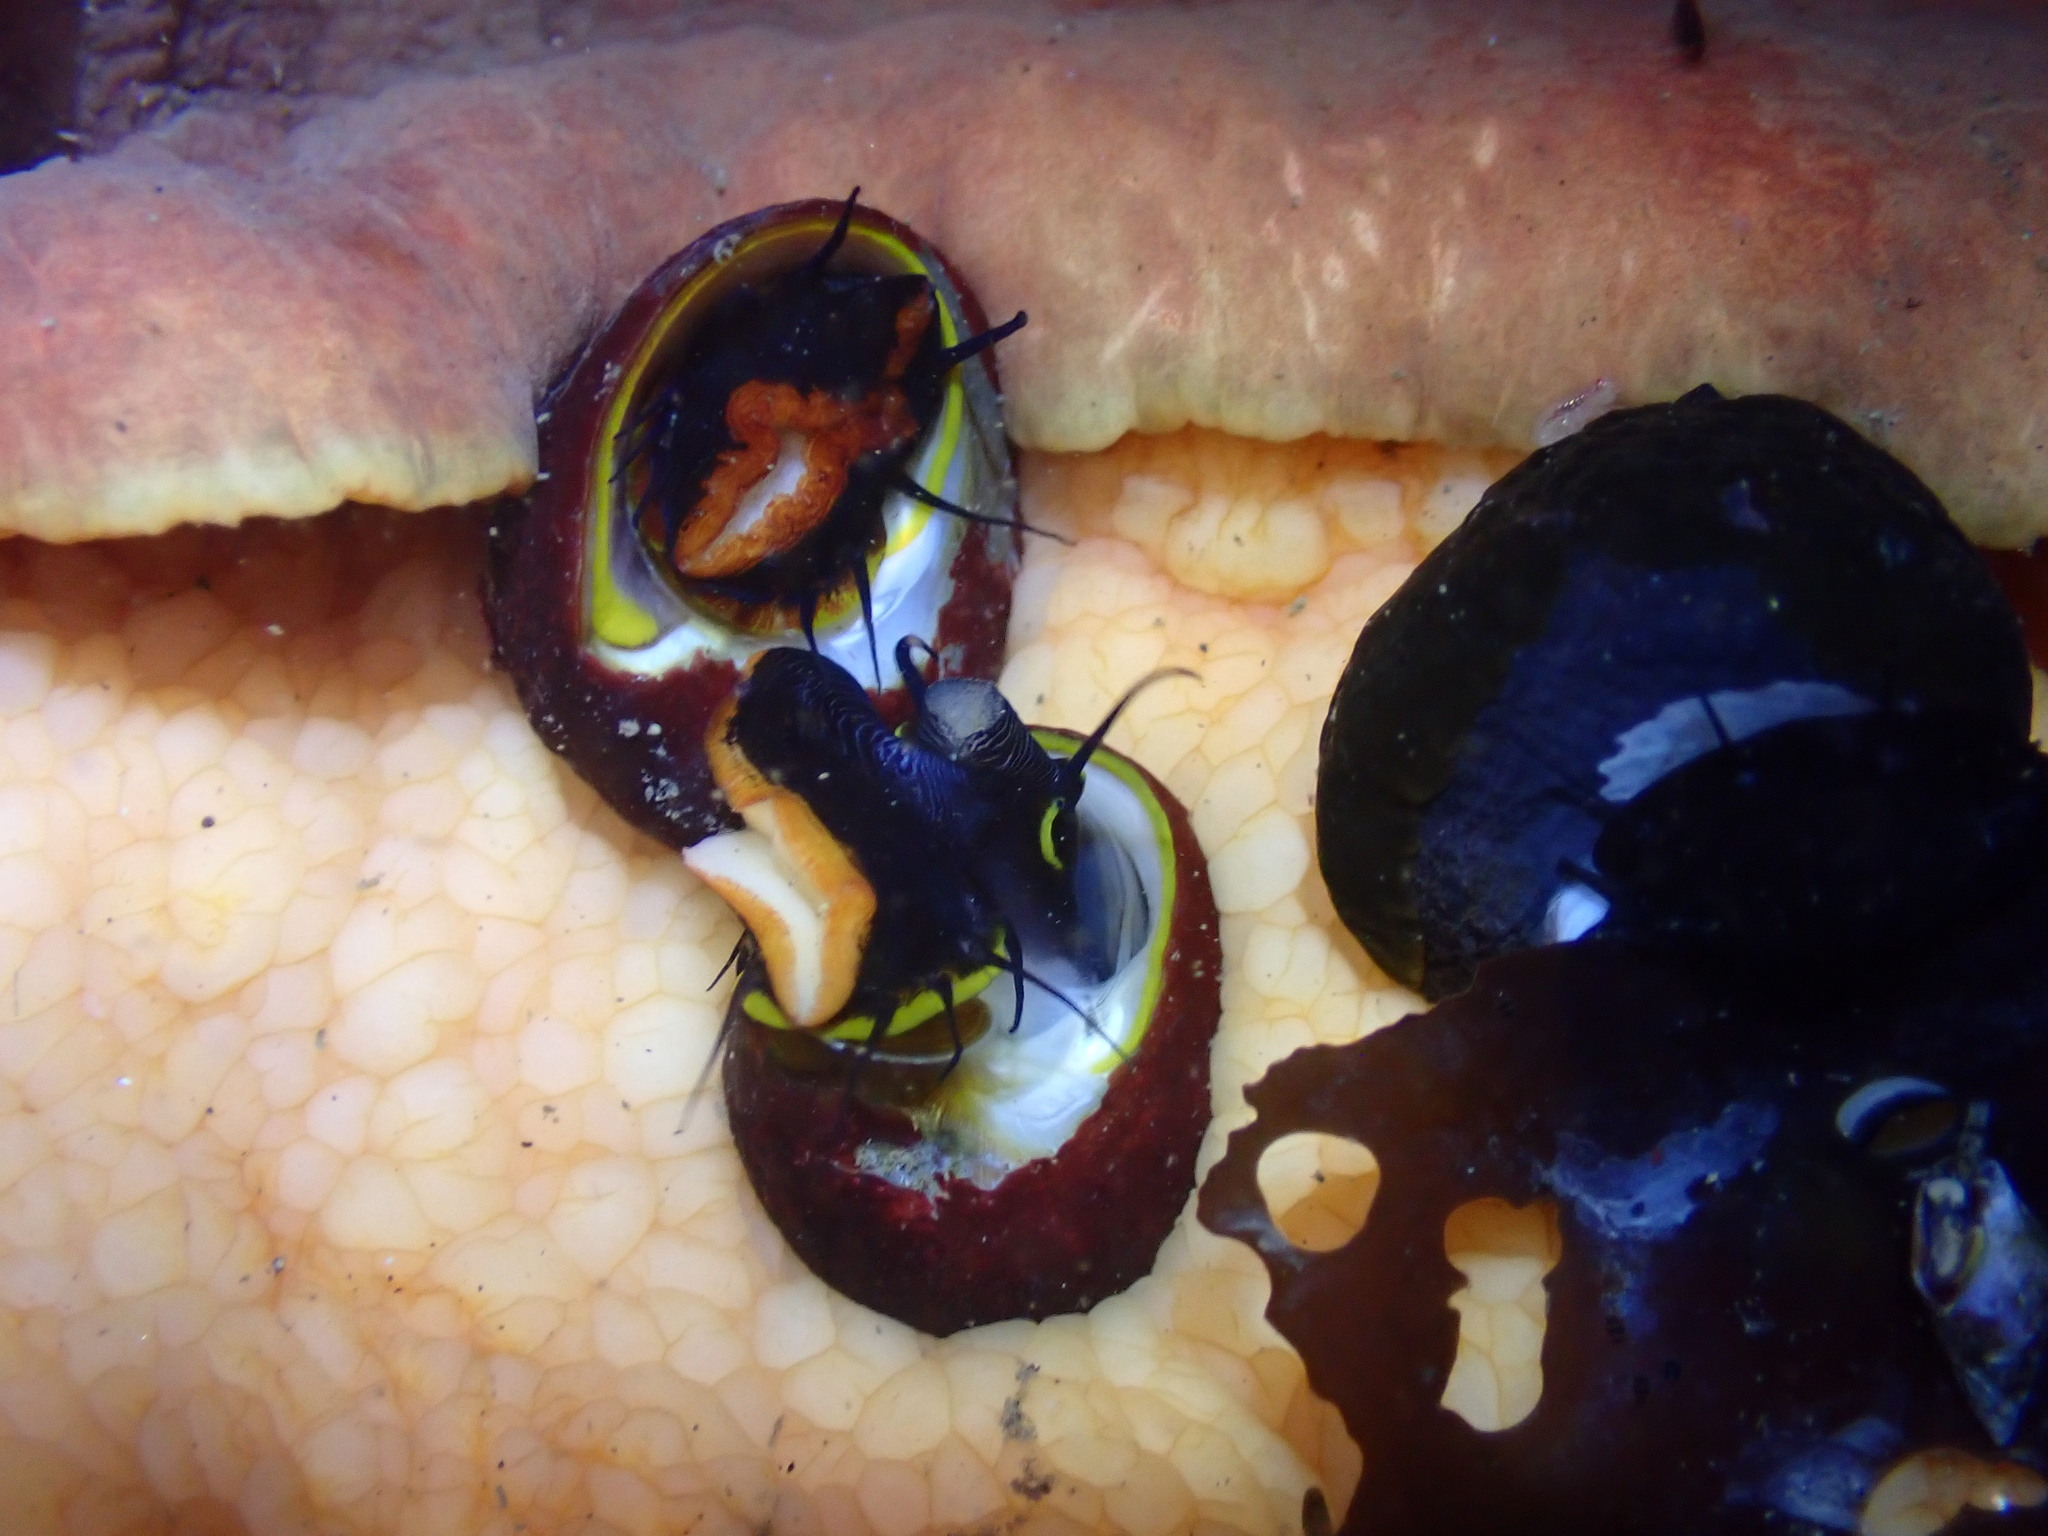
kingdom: Animalia
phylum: Mollusca
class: Polyplacophora
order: Chitonida
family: Acanthochitonidae
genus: Cryptochiton
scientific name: Cryptochiton stelleri
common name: Giant pacific chiton
